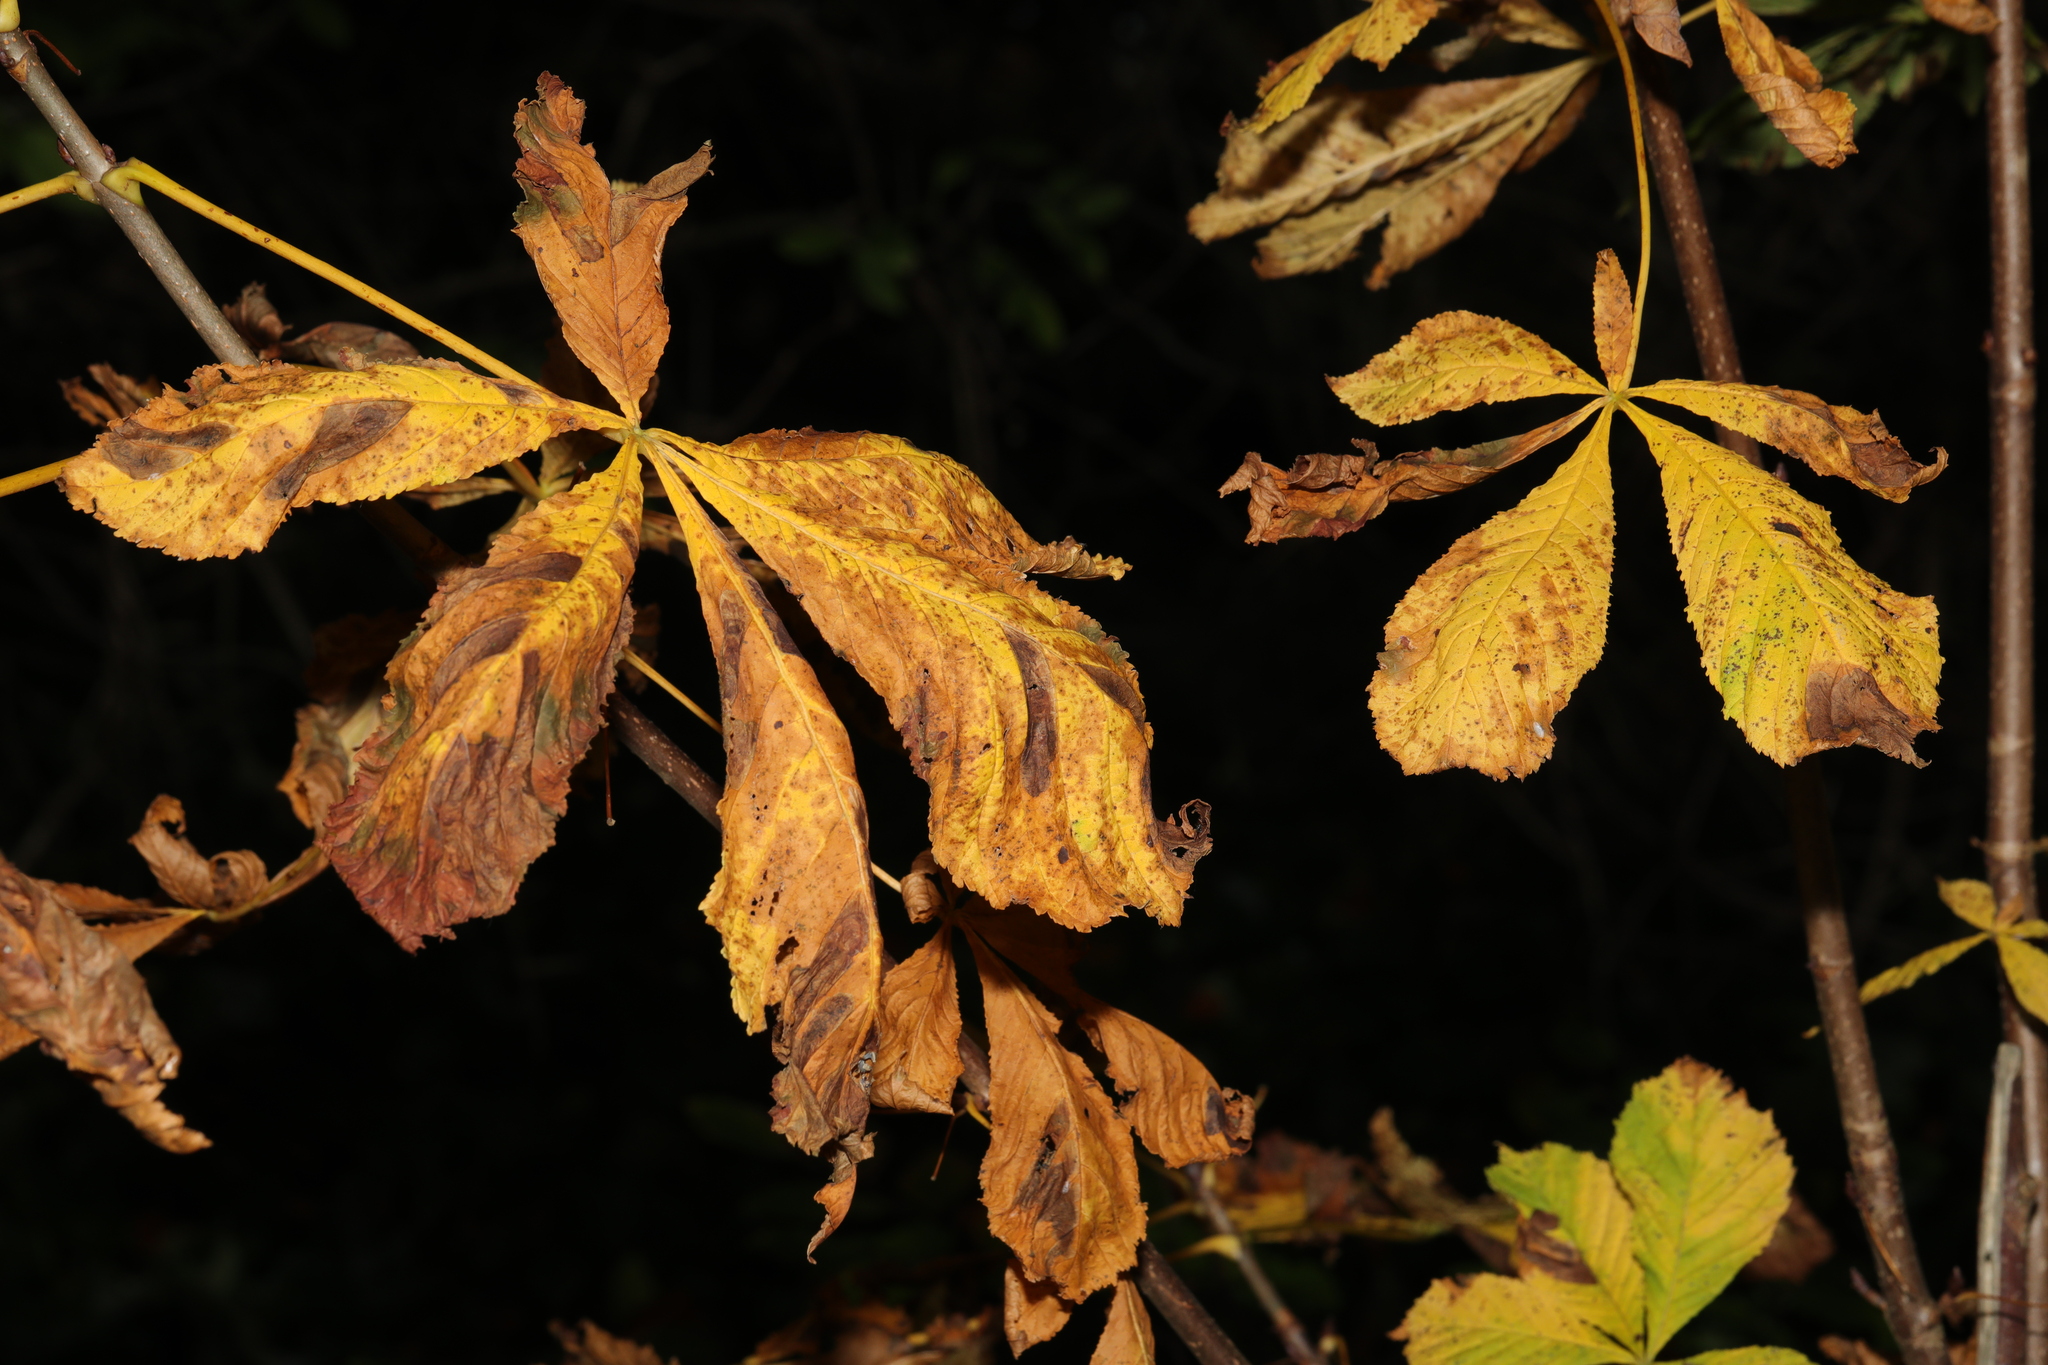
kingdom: Plantae
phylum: Tracheophyta
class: Magnoliopsida
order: Sapindales
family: Sapindaceae
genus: Aesculus
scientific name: Aesculus hippocastanum
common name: Horse-chestnut
